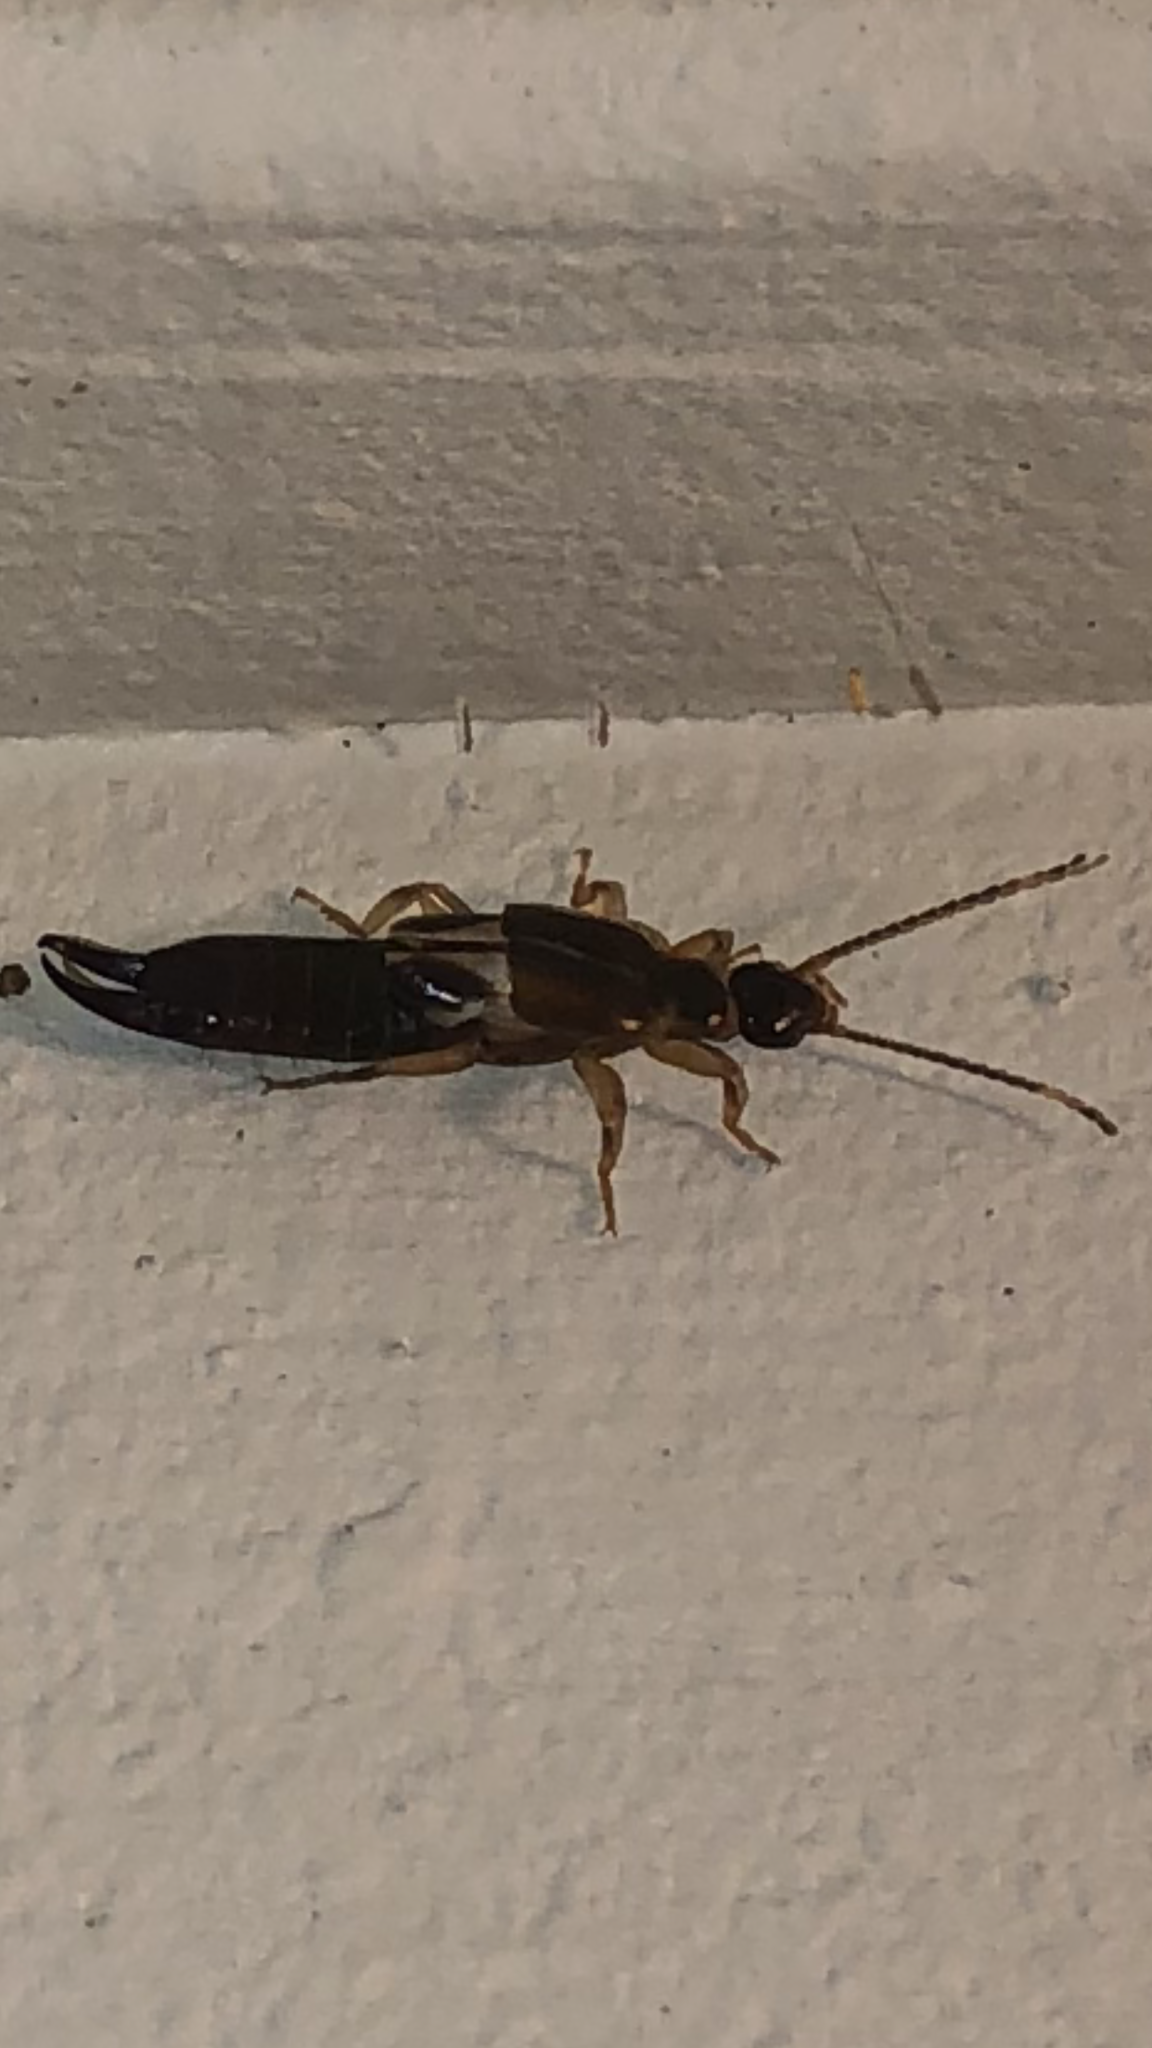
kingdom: Animalia
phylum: Arthropoda
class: Insecta
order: Dermaptera
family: Anisolabididae
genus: Euborellia
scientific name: Euborellia cincticollis
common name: African earwig
